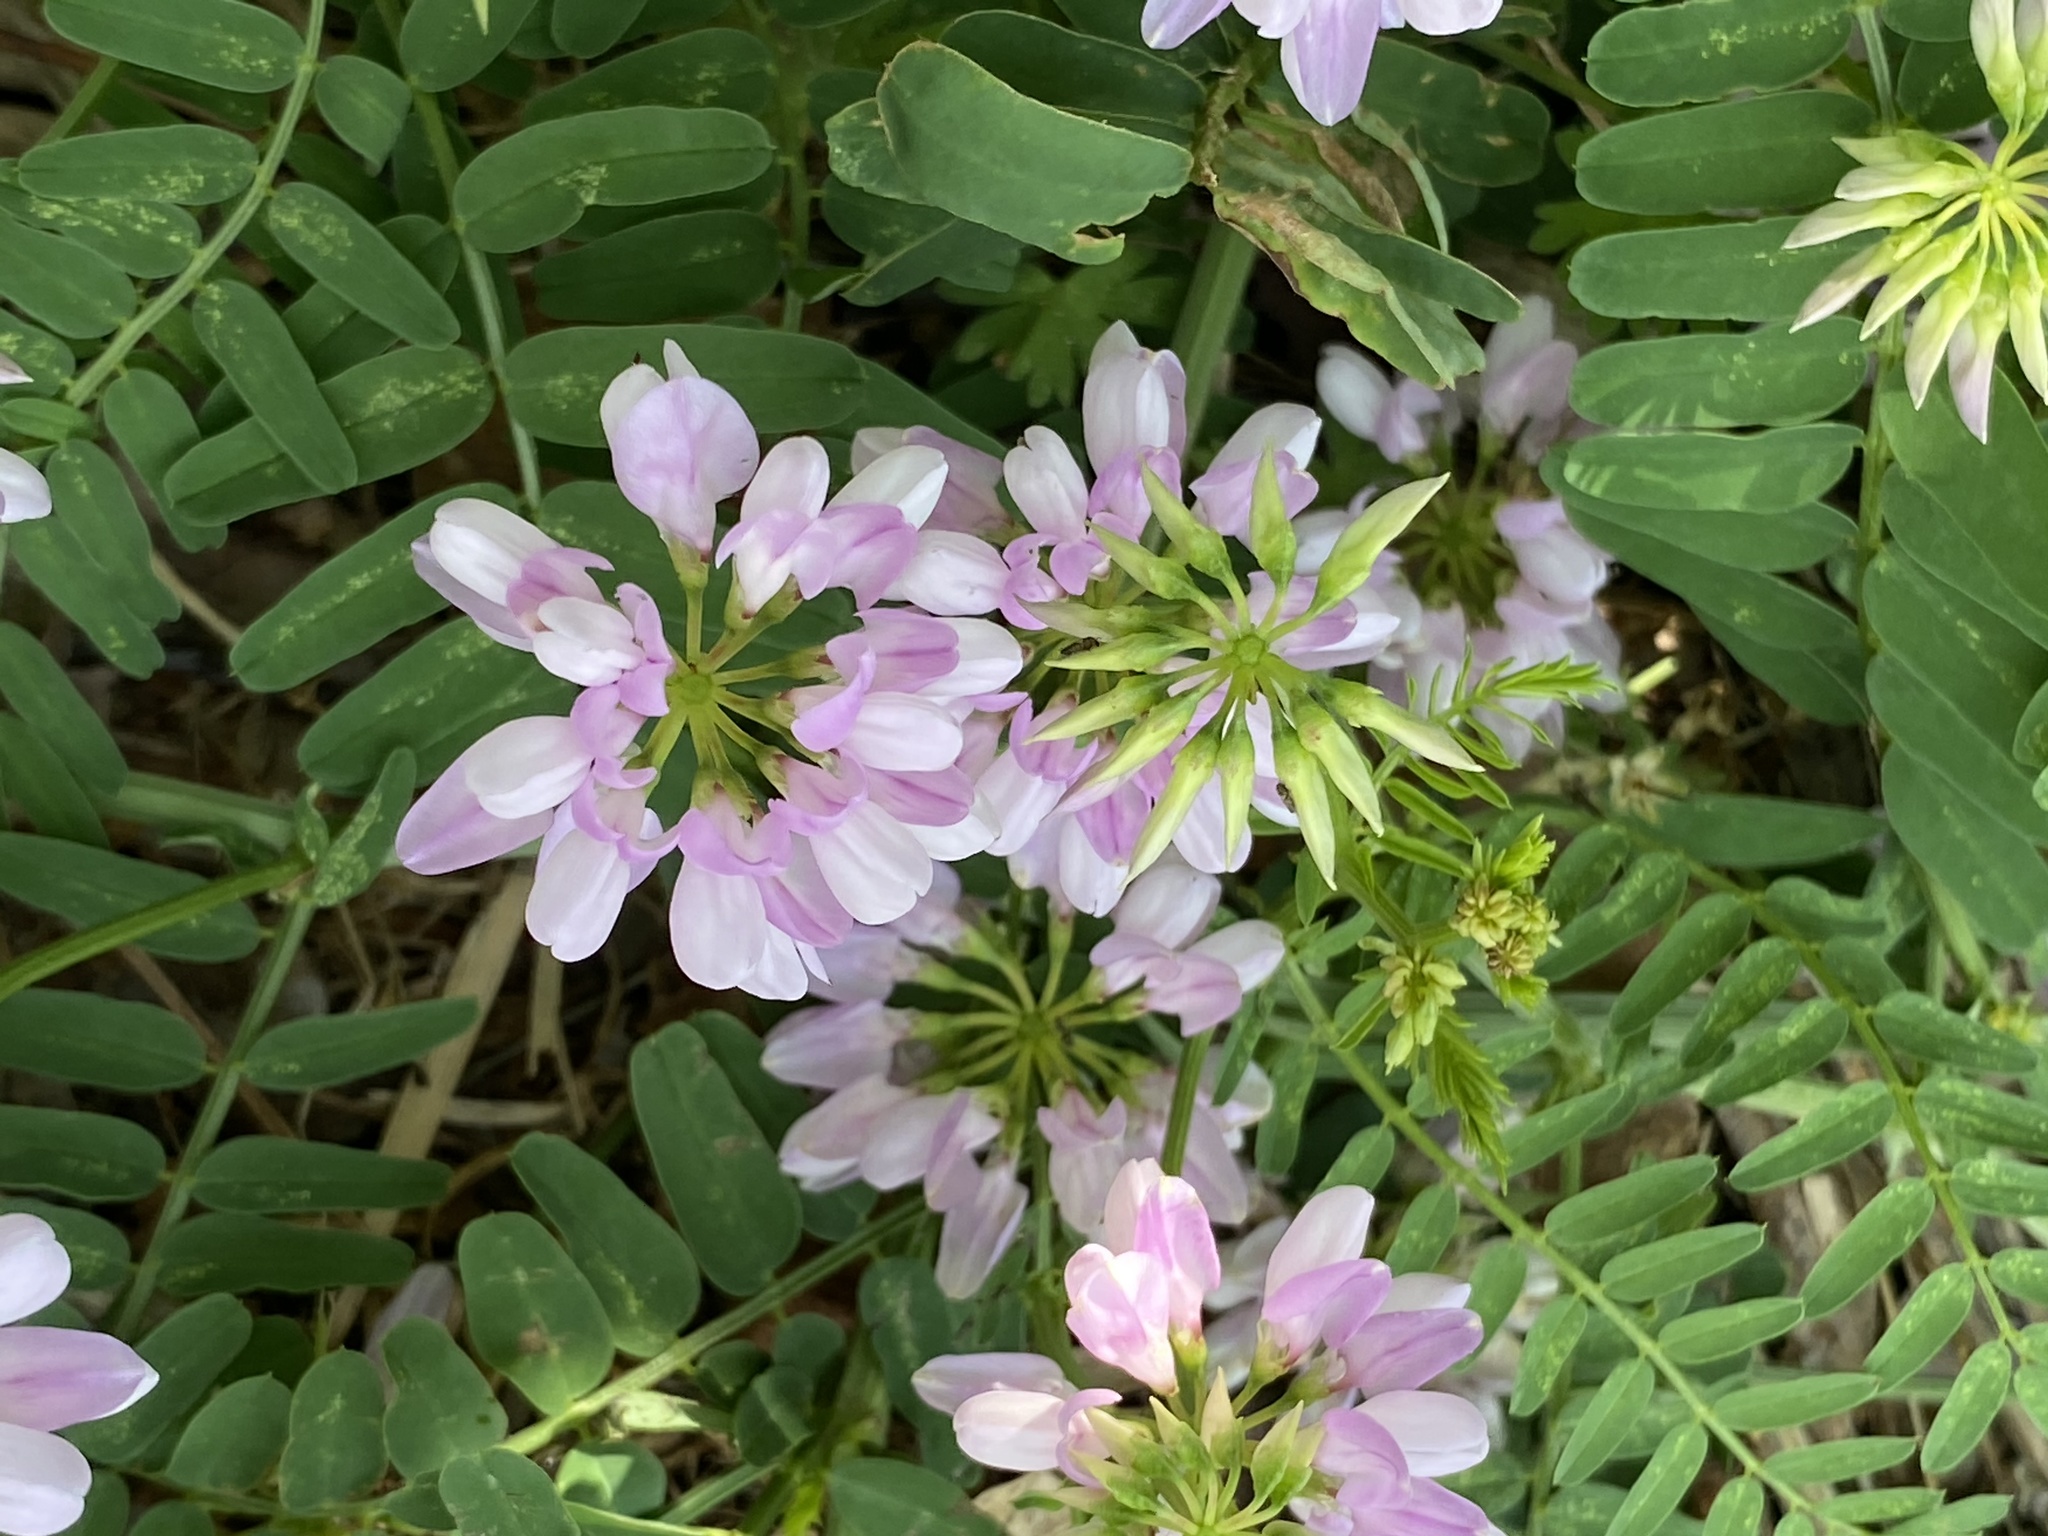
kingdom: Plantae
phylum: Tracheophyta
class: Magnoliopsida
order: Fabales
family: Fabaceae
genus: Coronilla
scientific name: Coronilla varia
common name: Crownvetch
